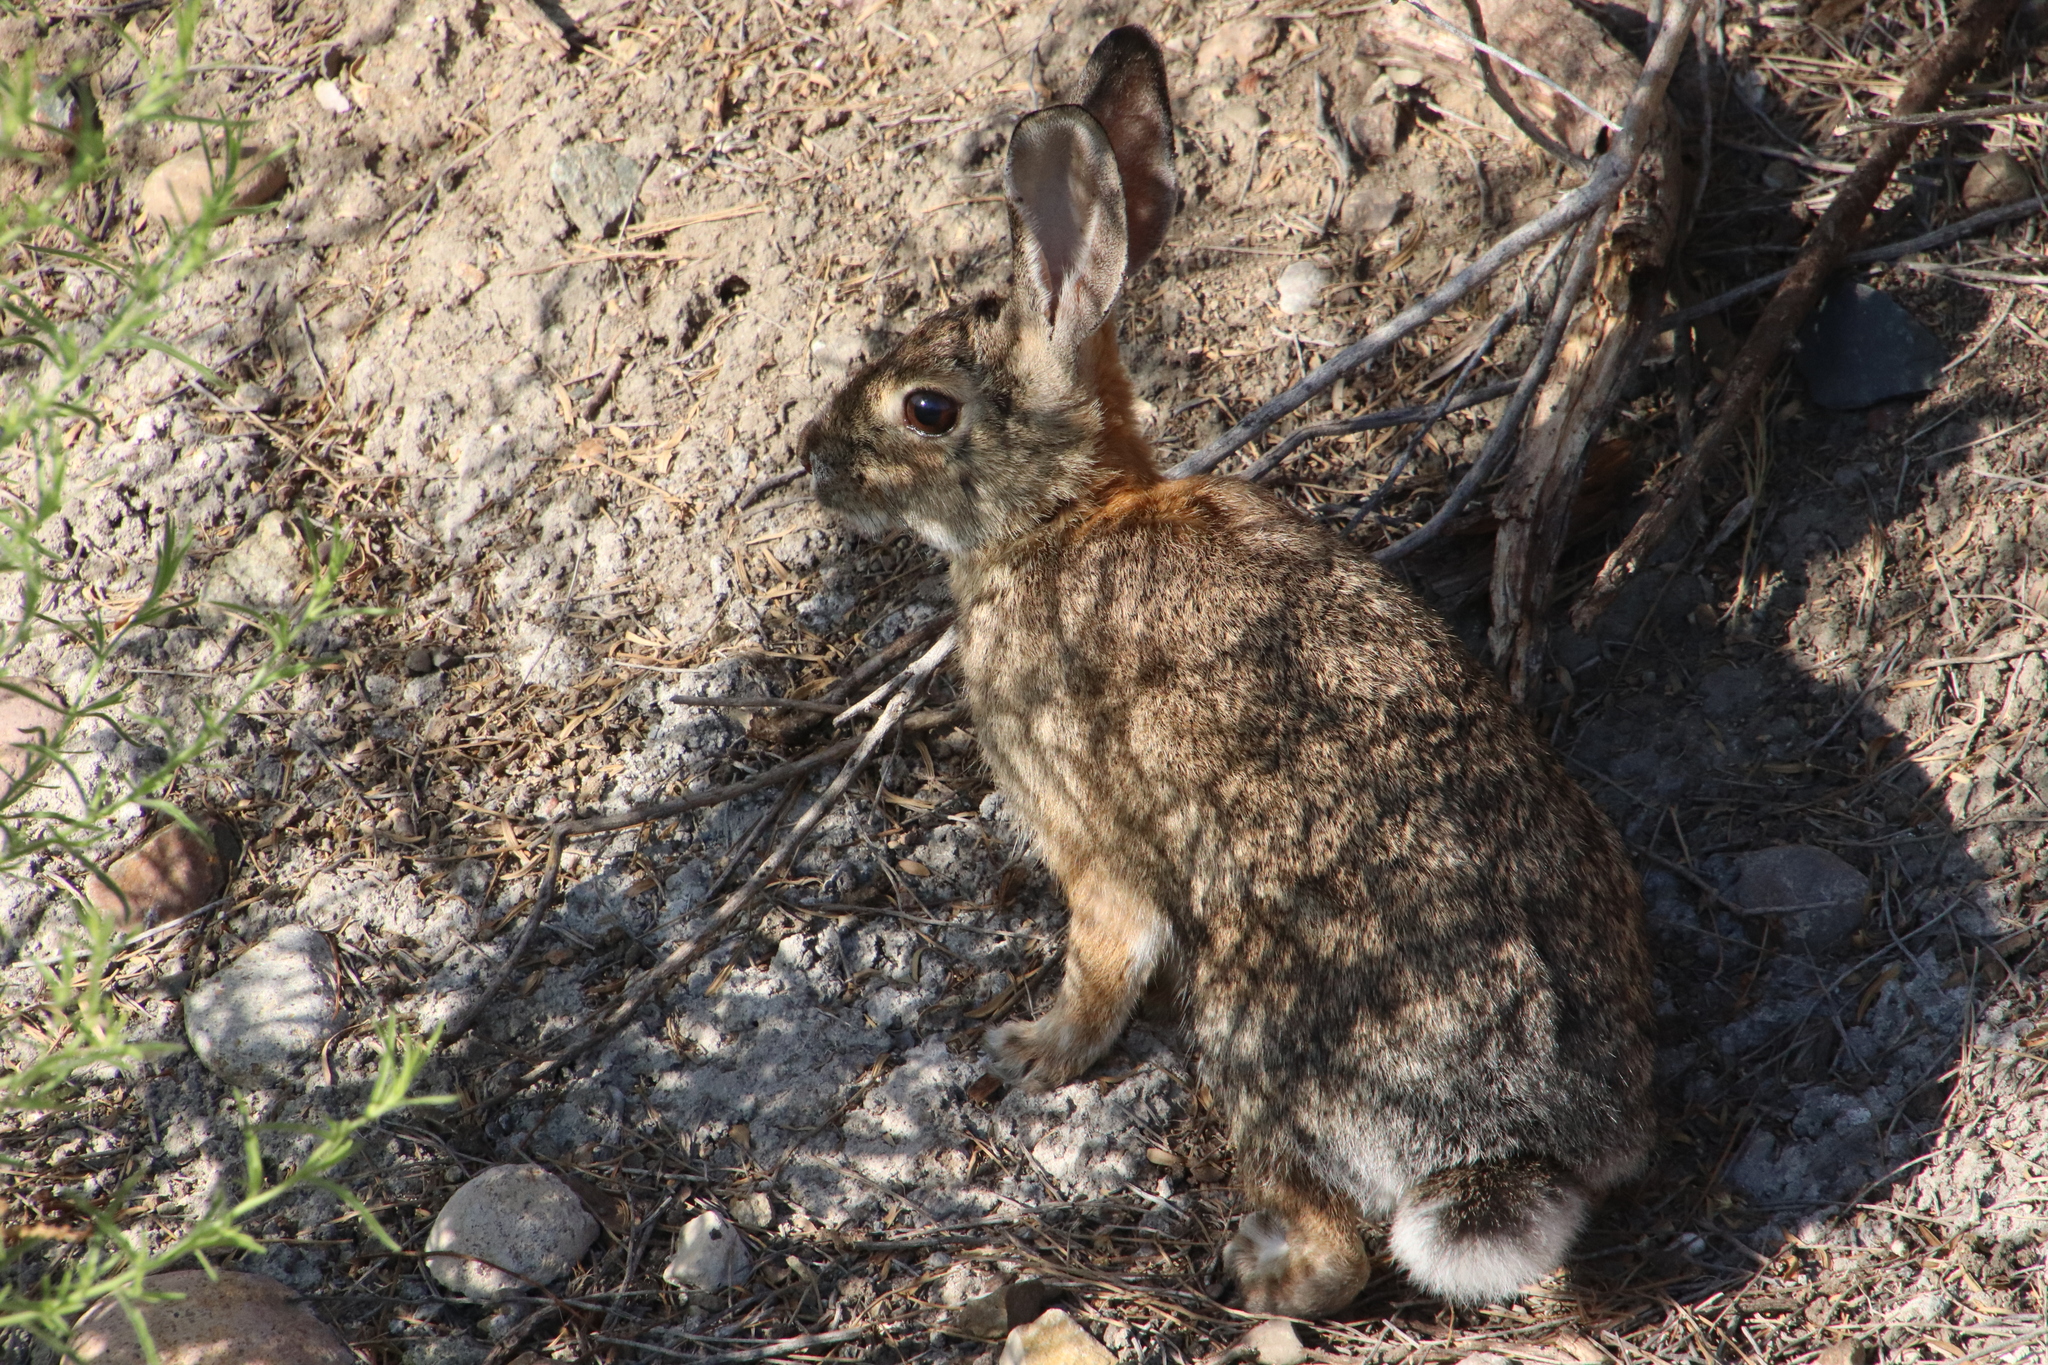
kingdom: Animalia
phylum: Chordata
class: Mammalia
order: Lagomorpha
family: Leporidae
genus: Sylvilagus
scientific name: Sylvilagus audubonii
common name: Desert cottontail
